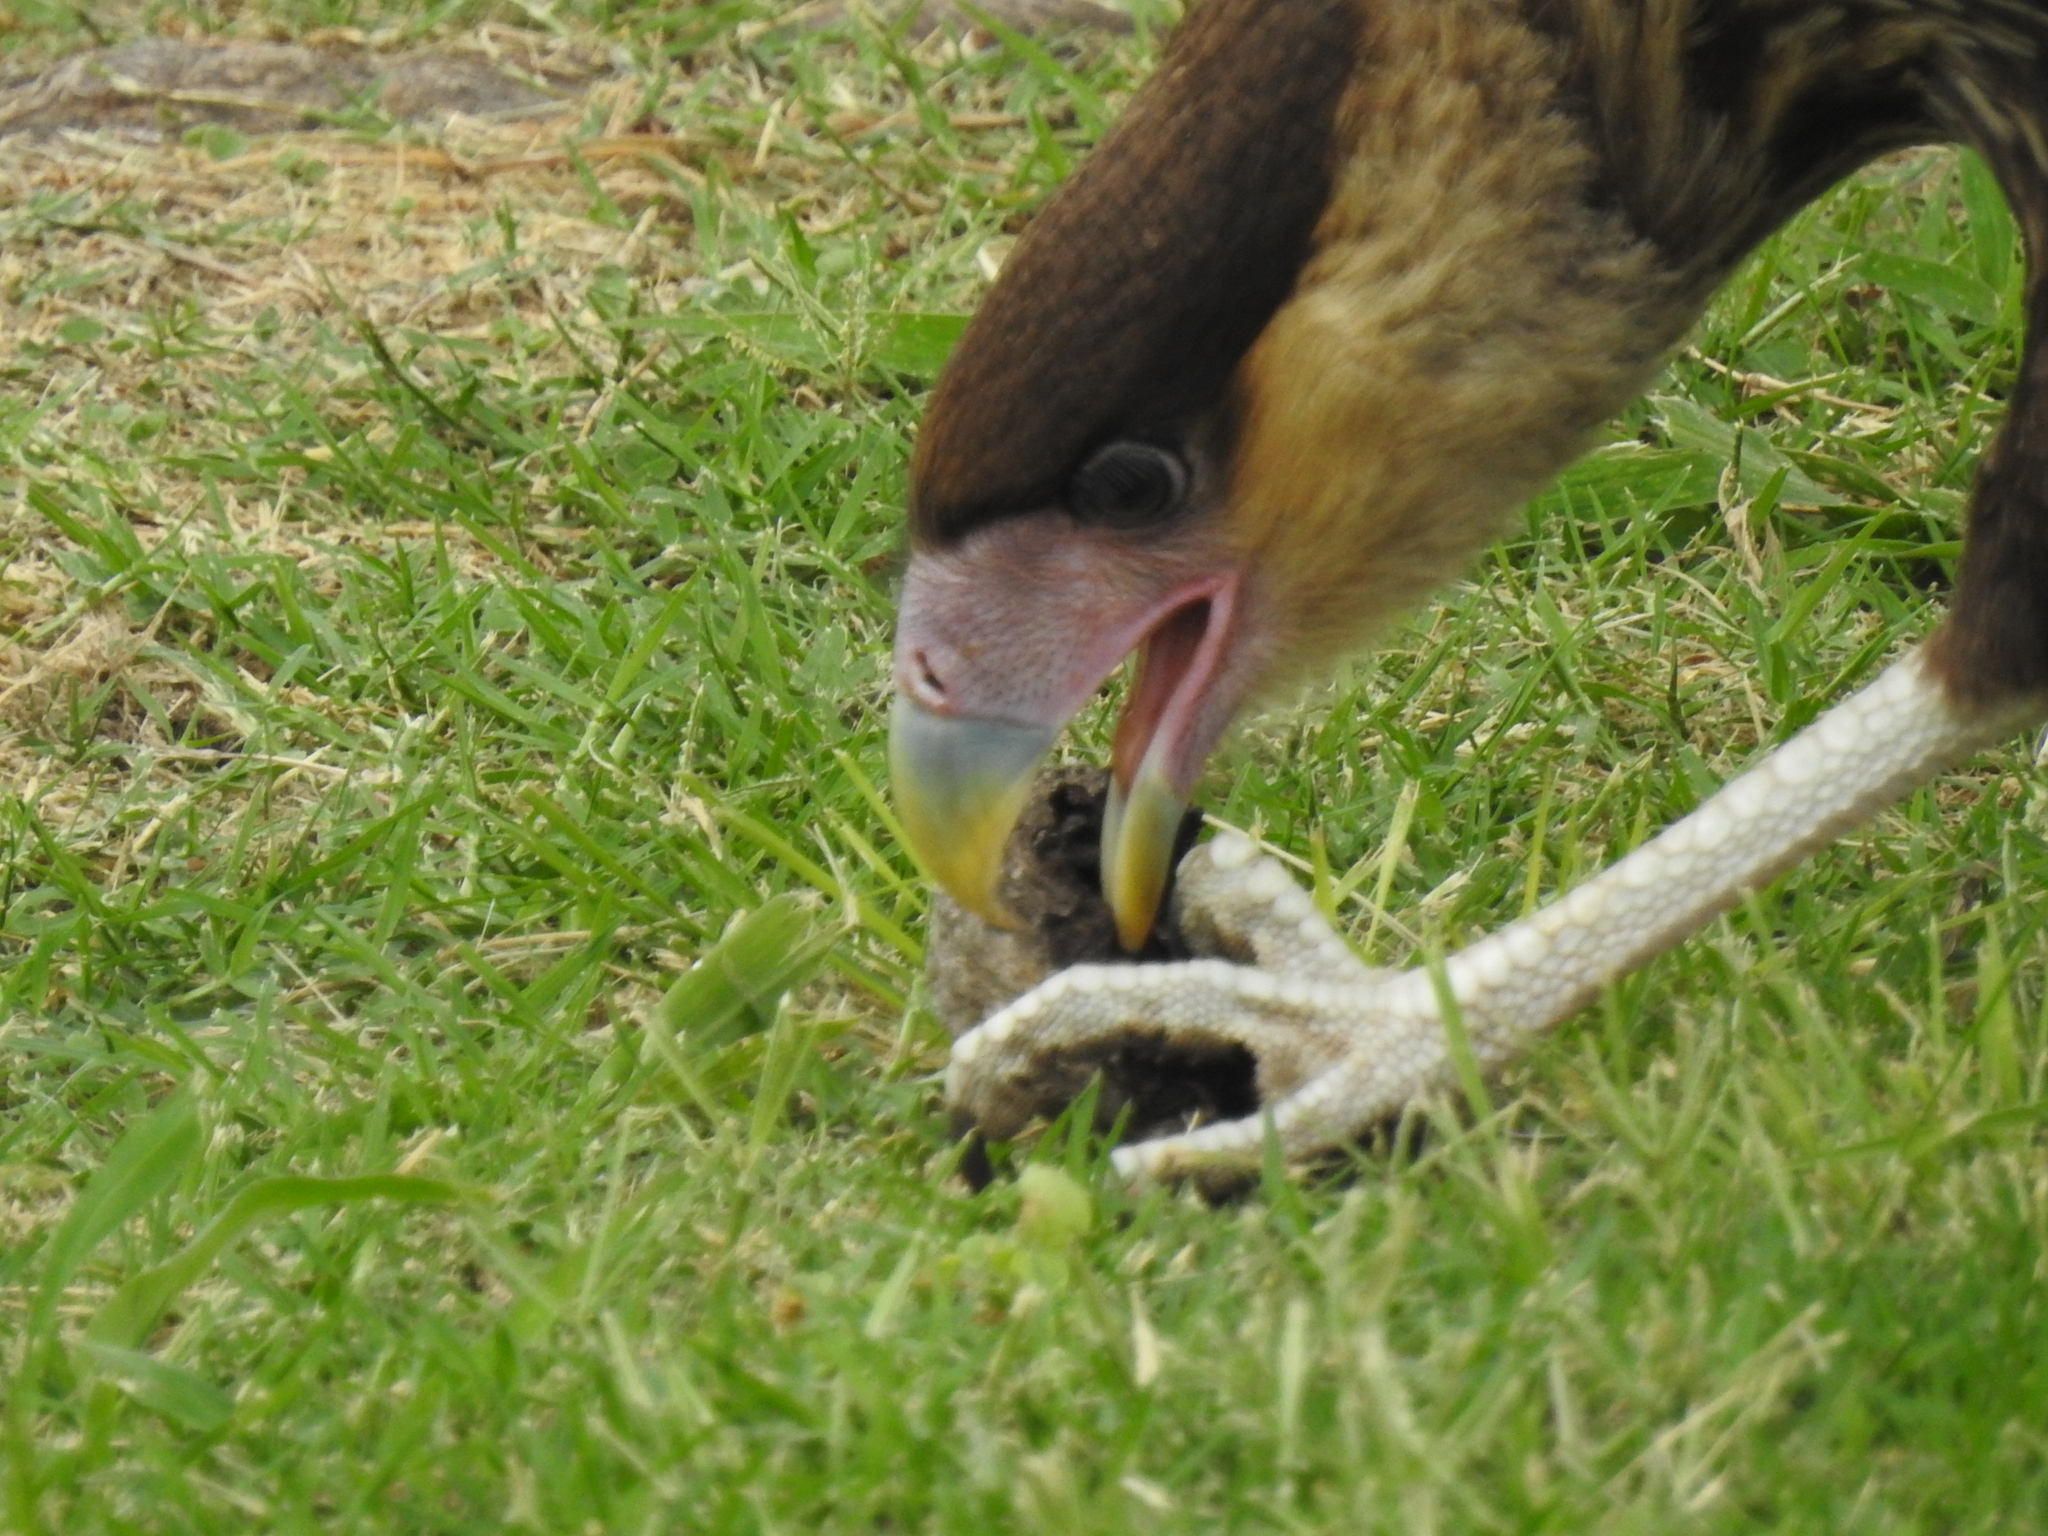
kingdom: Animalia
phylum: Chordata
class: Aves
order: Falconiformes
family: Falconidae
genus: Caracara
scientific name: Caracara plancus
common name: Southern caracara
